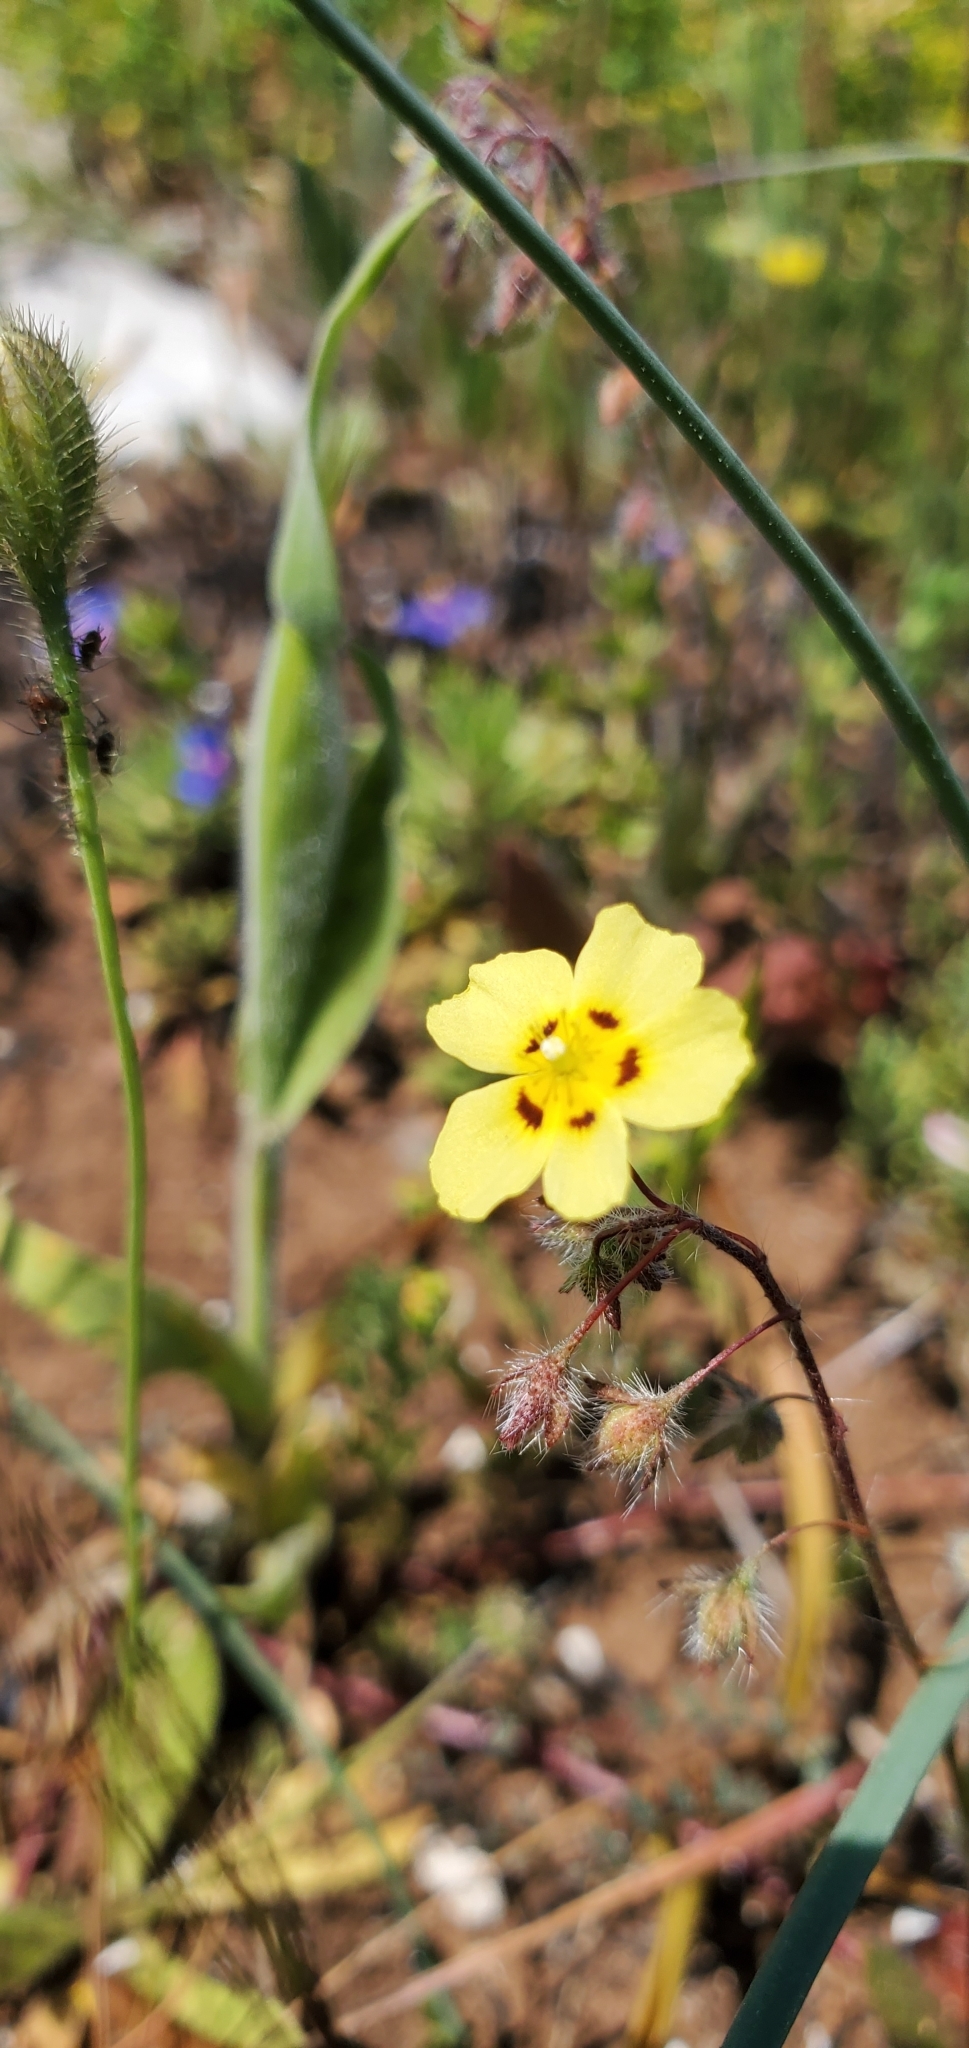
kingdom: Plantae
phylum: Tracheophyta
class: Magnoliopsida
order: Malvales
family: Cistaceae
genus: Tuberaria
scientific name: Tuberaria guttata
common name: Spotted rock-rose
